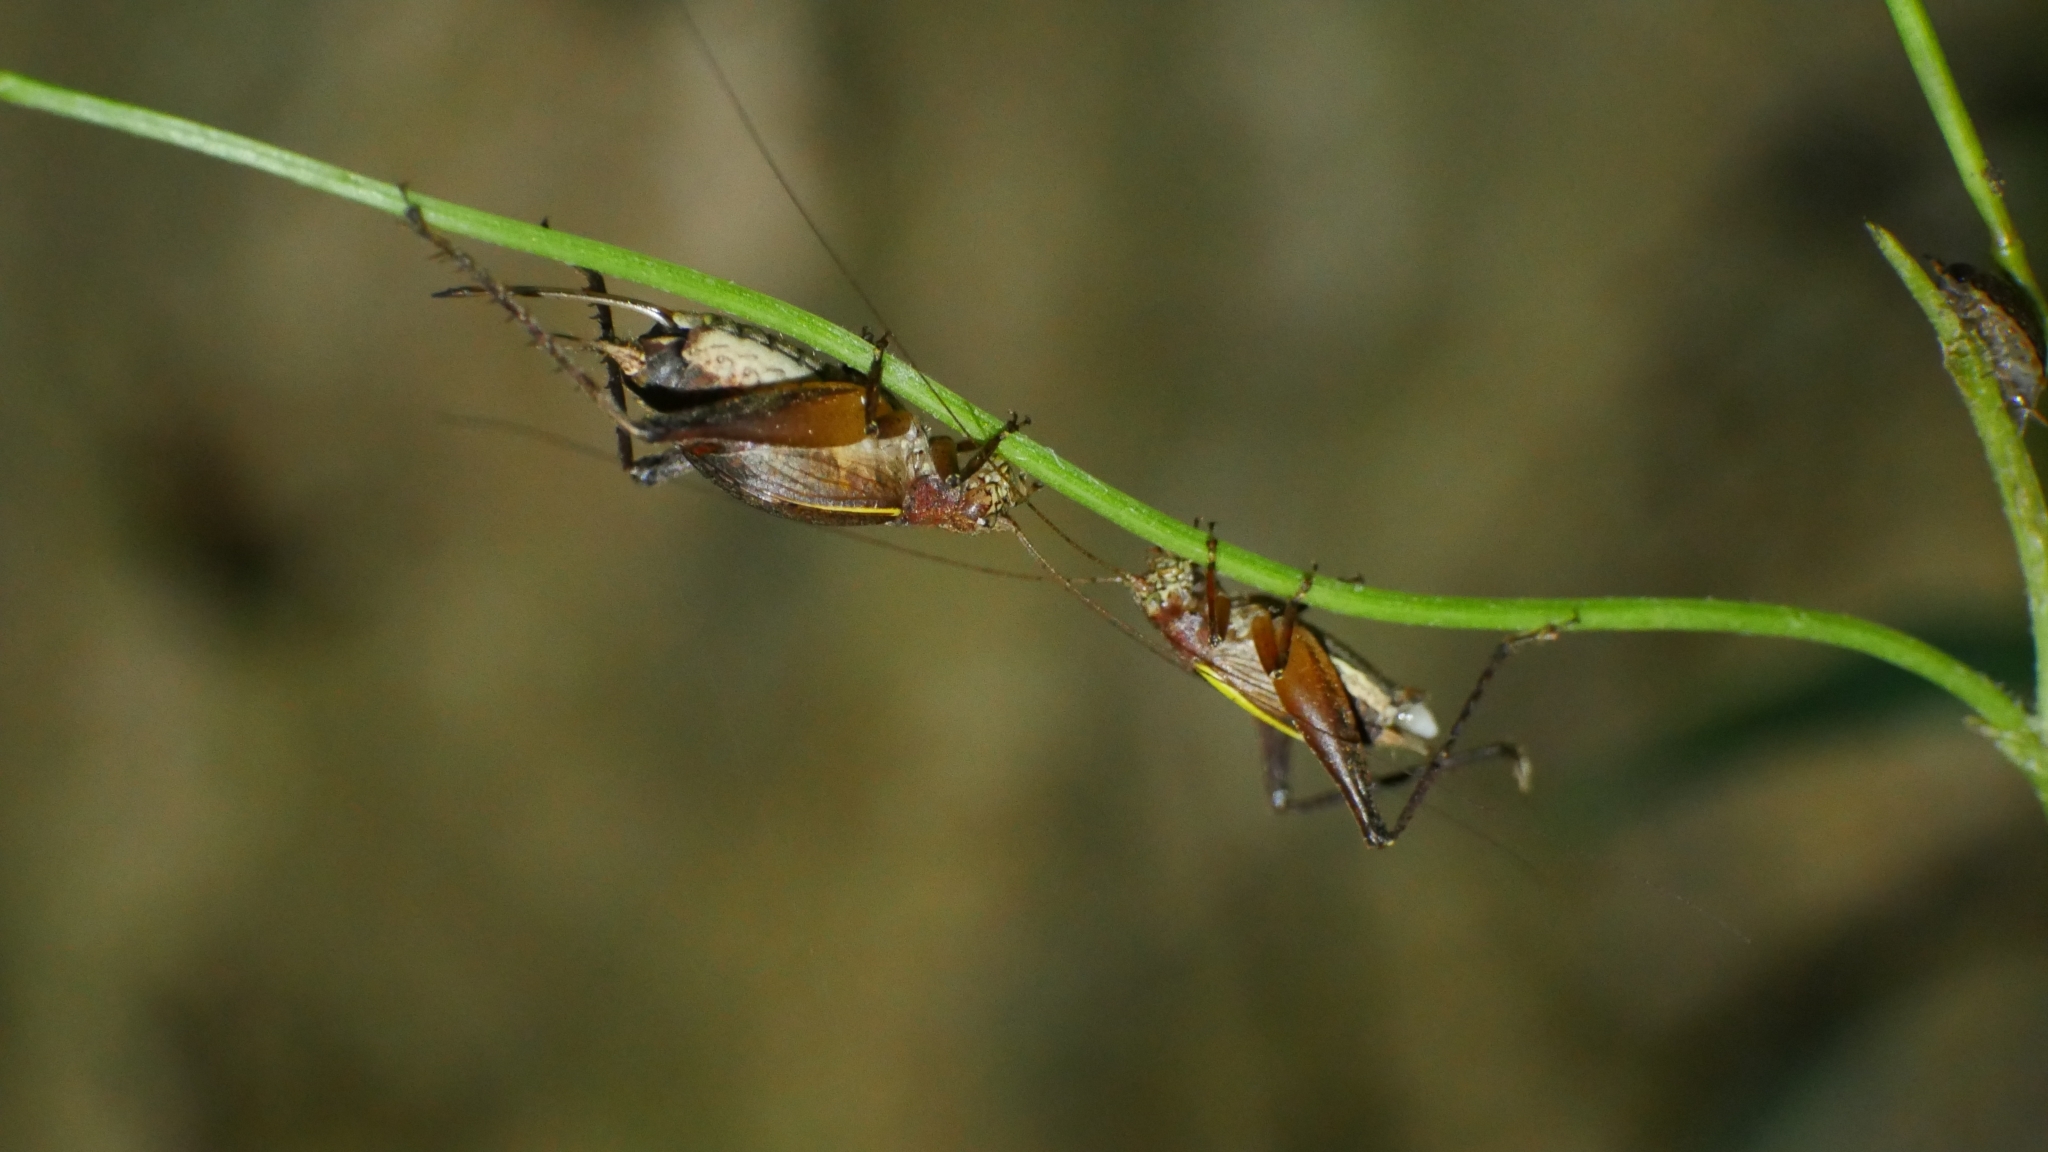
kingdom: Animalia
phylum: Arthropoda
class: Insecta
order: Orthoptera
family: Gryllidae
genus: Hapithus
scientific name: Hapithus agitator
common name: Restless bush cricket
